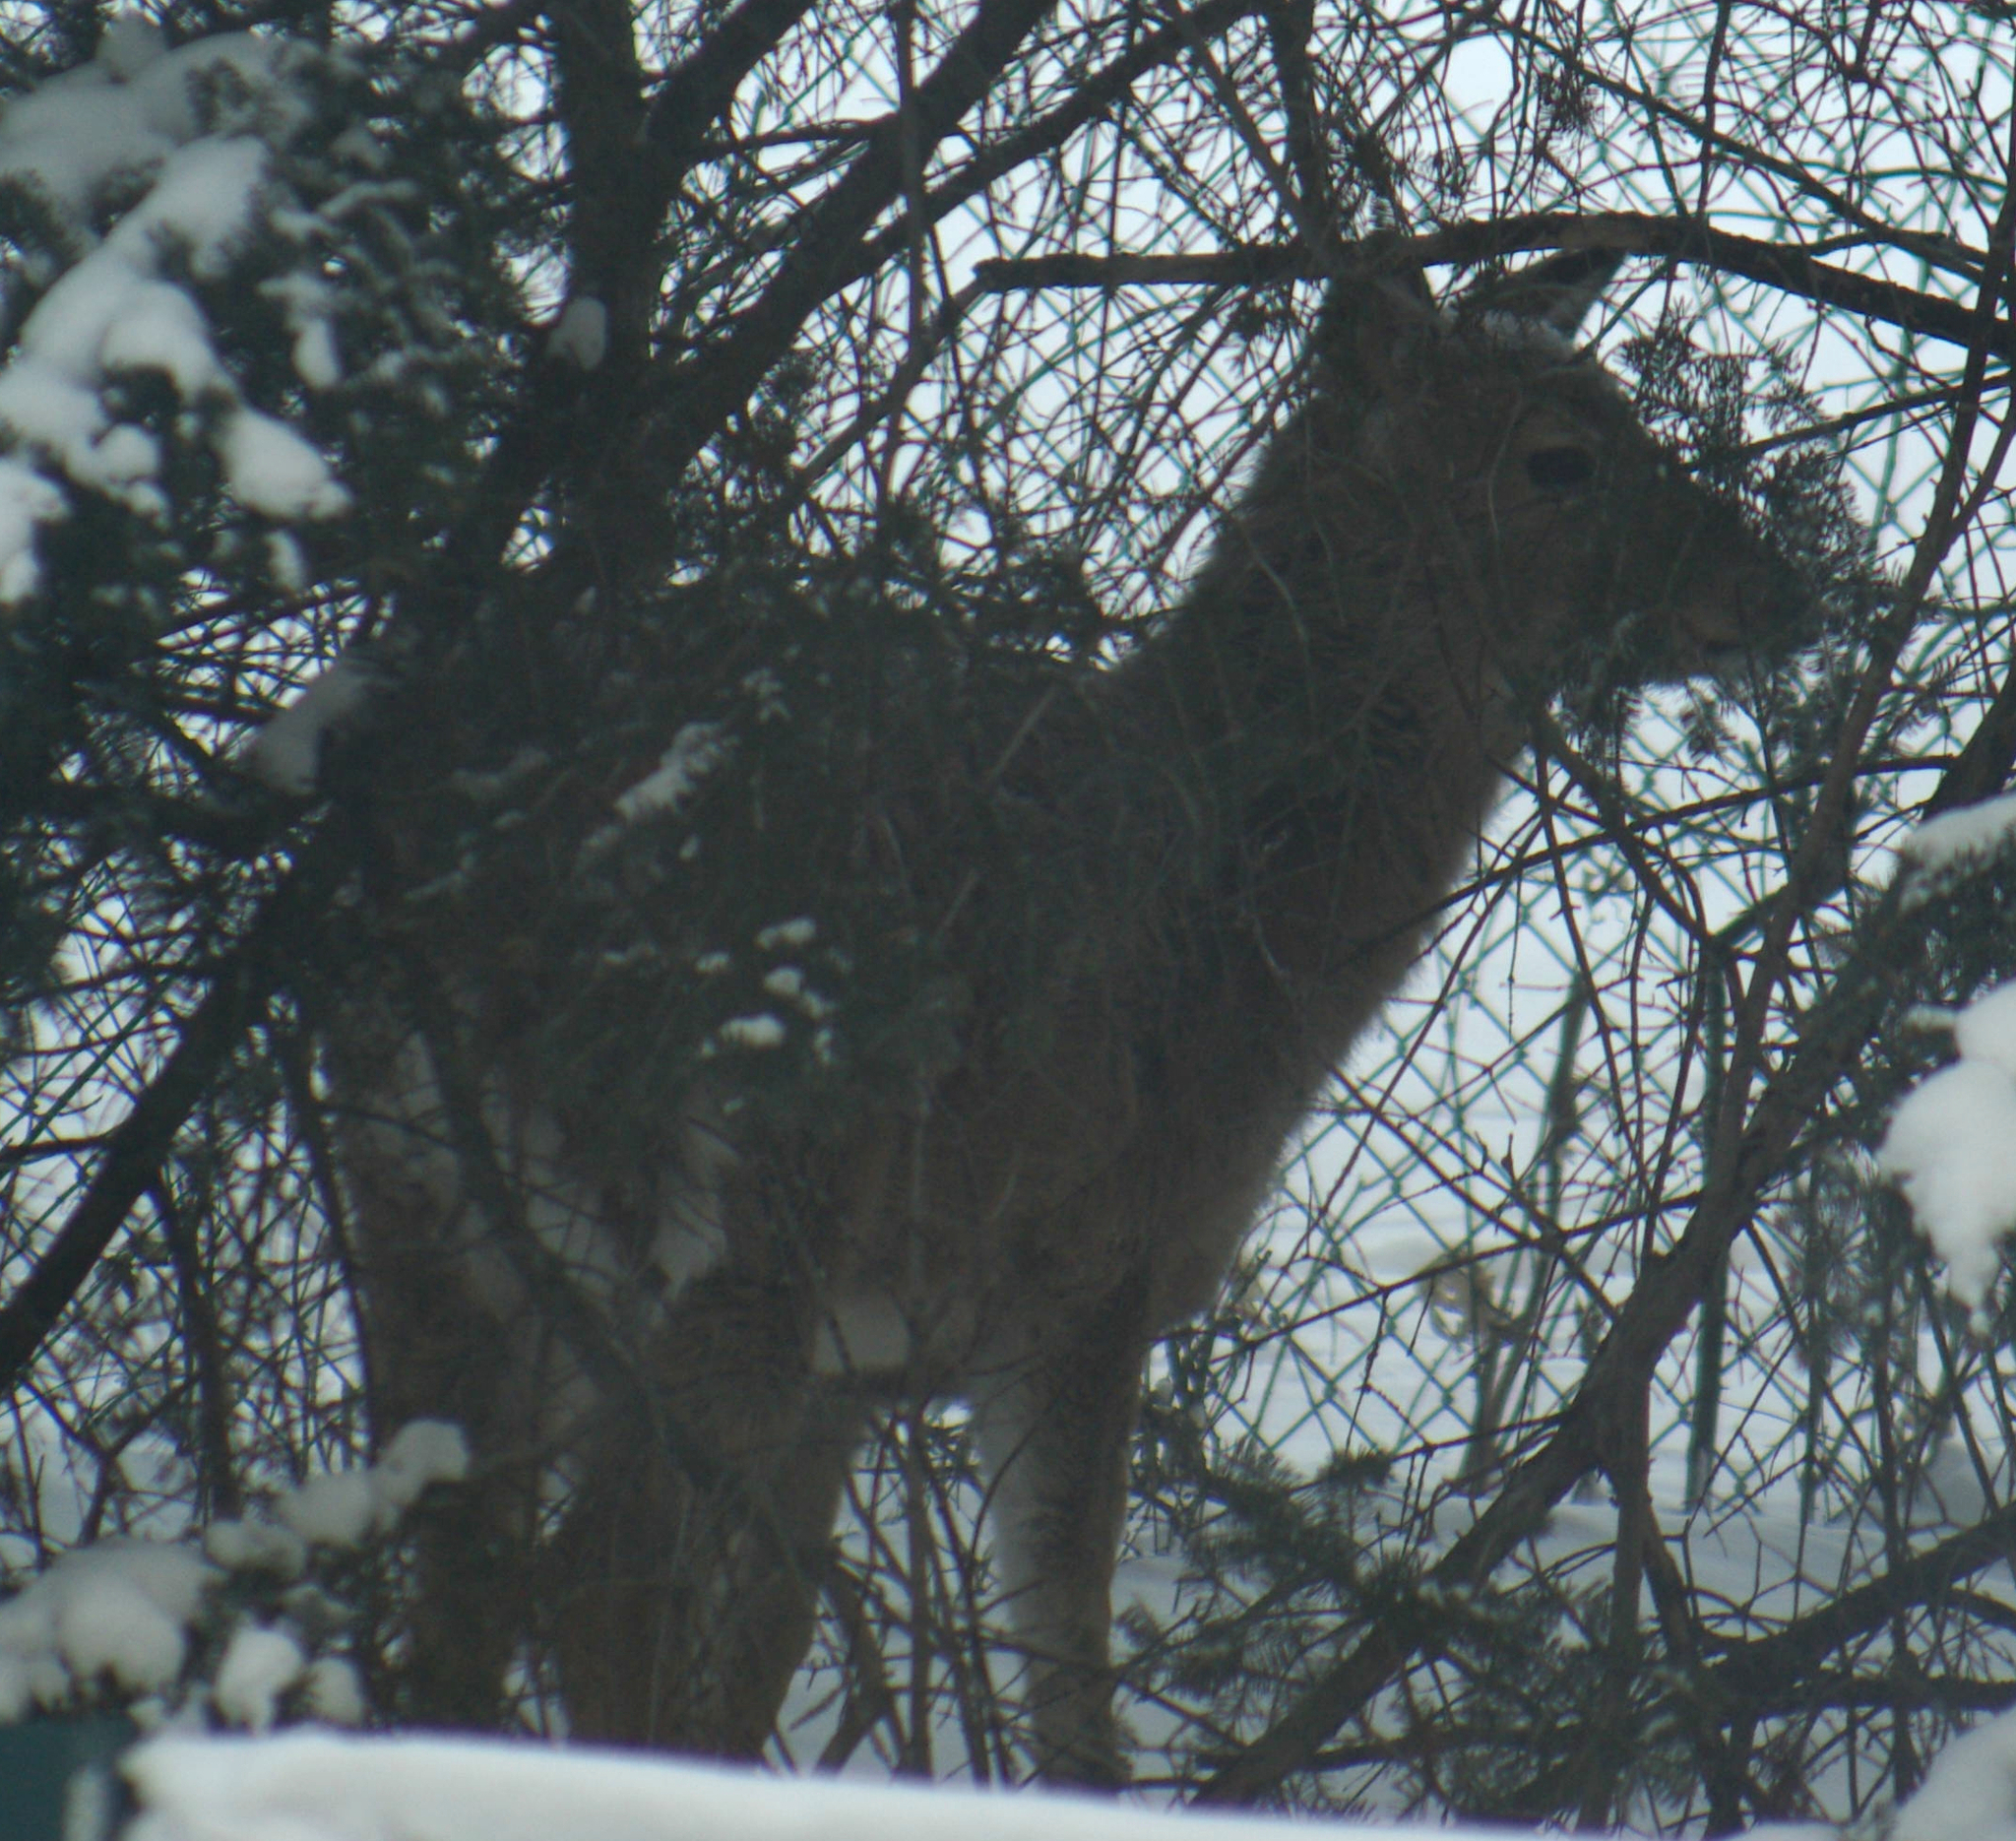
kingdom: Animalia
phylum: Chordata
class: Mammalia
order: Artiodactyla
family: Cervidae
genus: Odocoileus
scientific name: Odocoileus virginianus
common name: White-tailed deer
